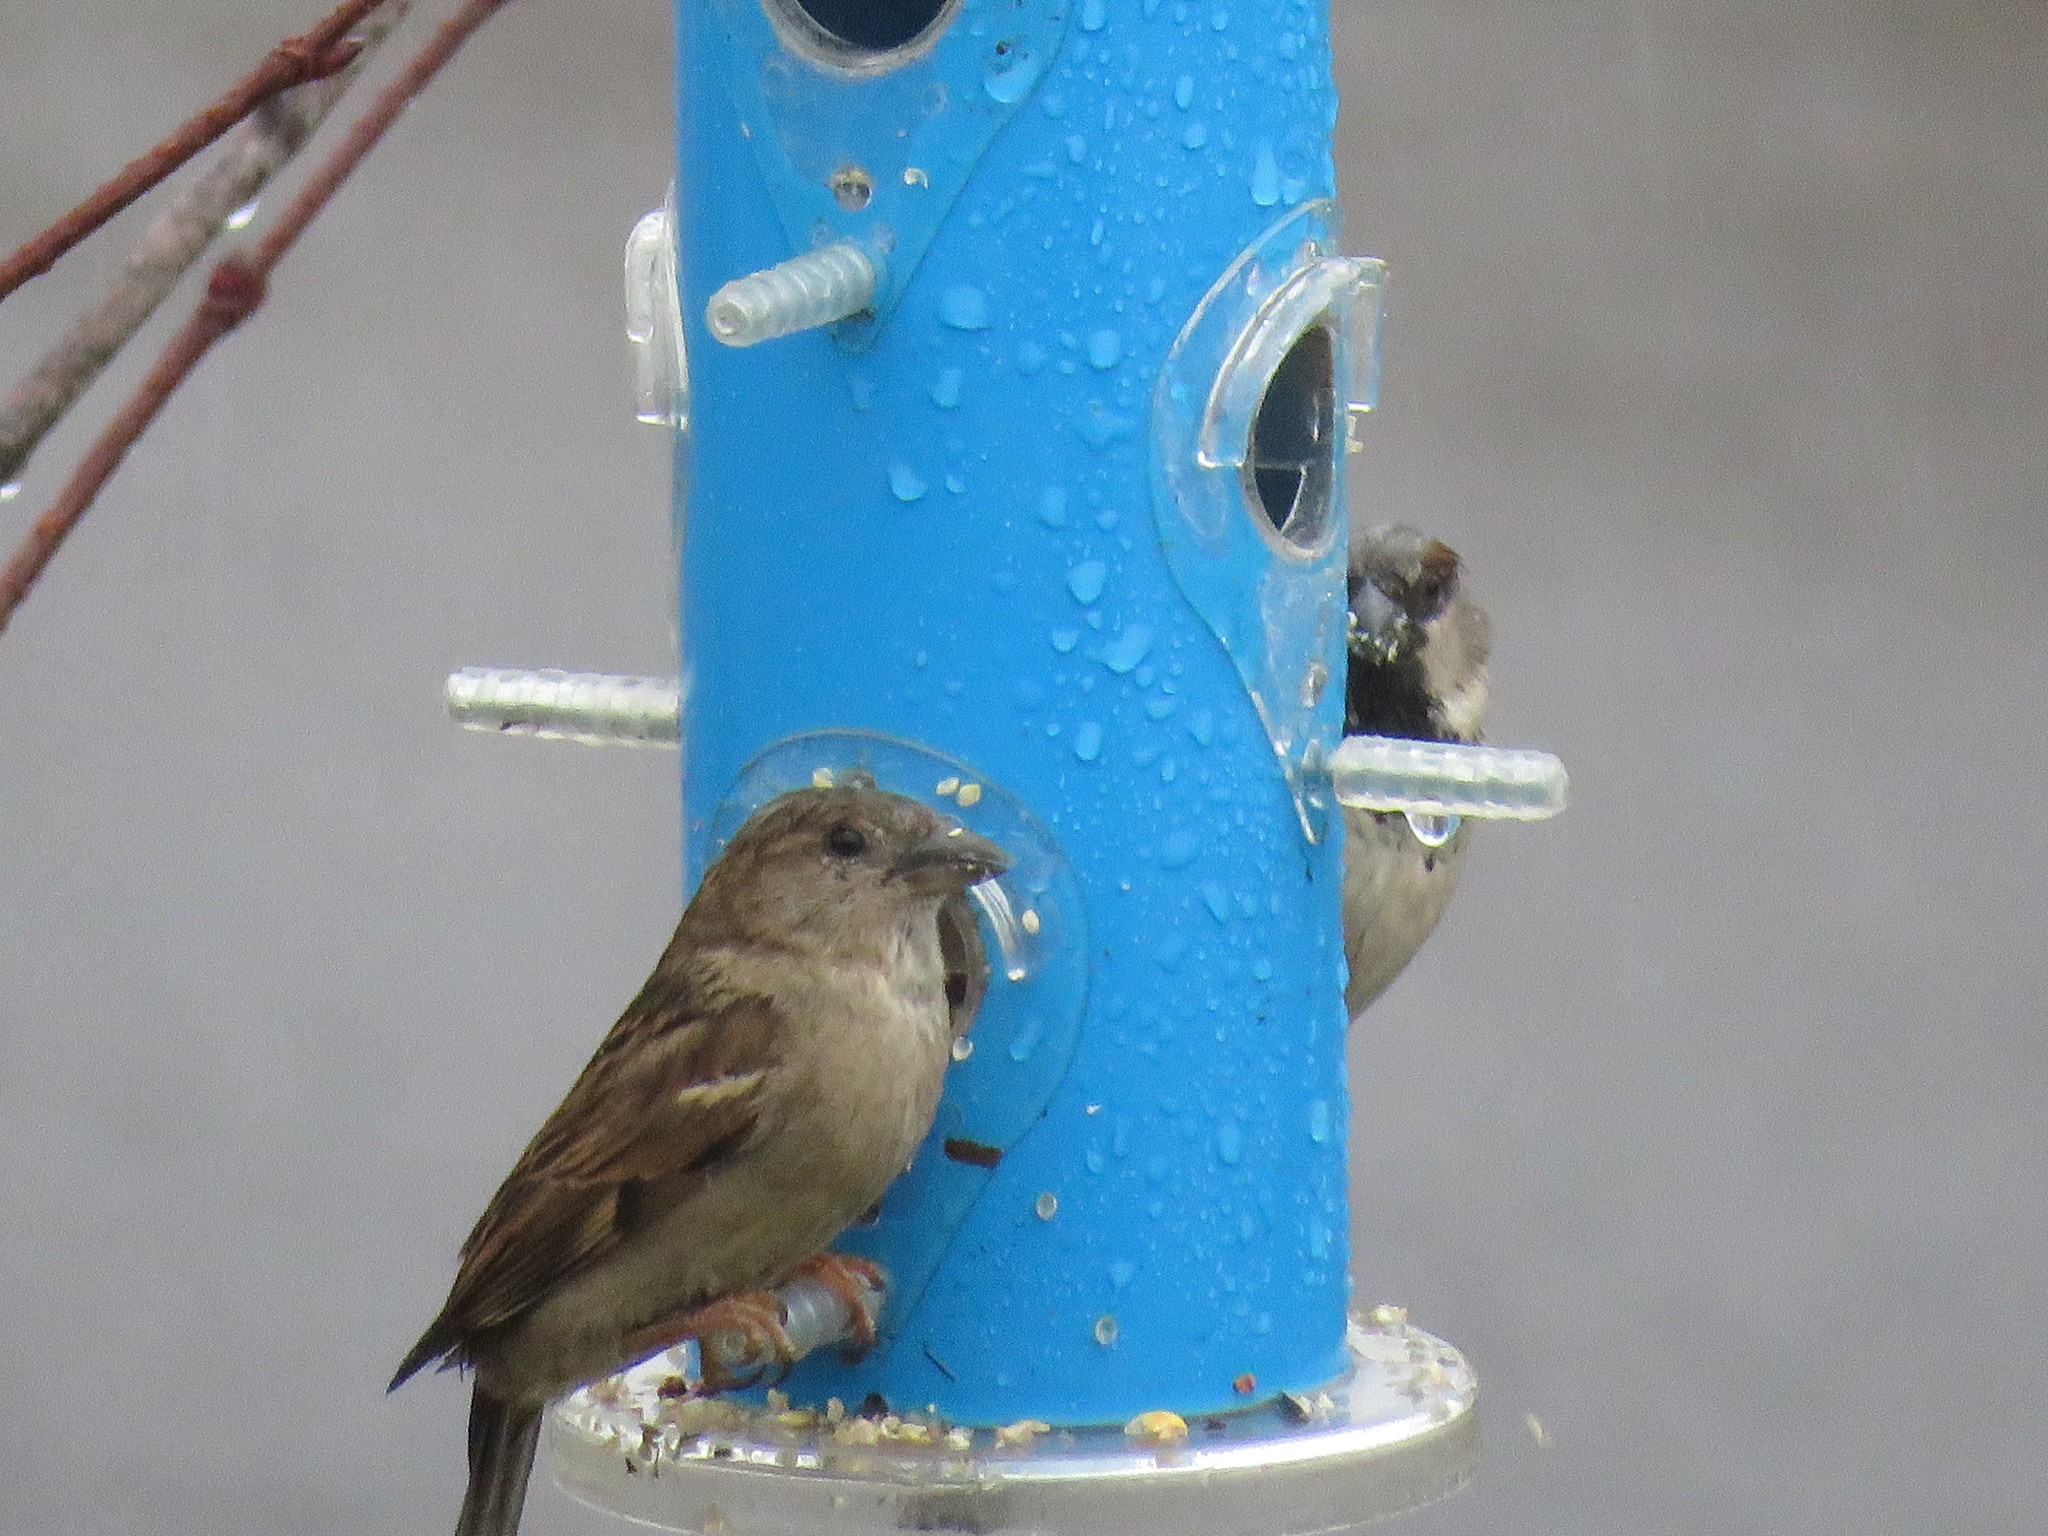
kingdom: Animalia
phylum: Chordata
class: Aves
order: Passeriformes
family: Passeridae
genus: Passer
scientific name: Passer domesticus
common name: House sparrow
